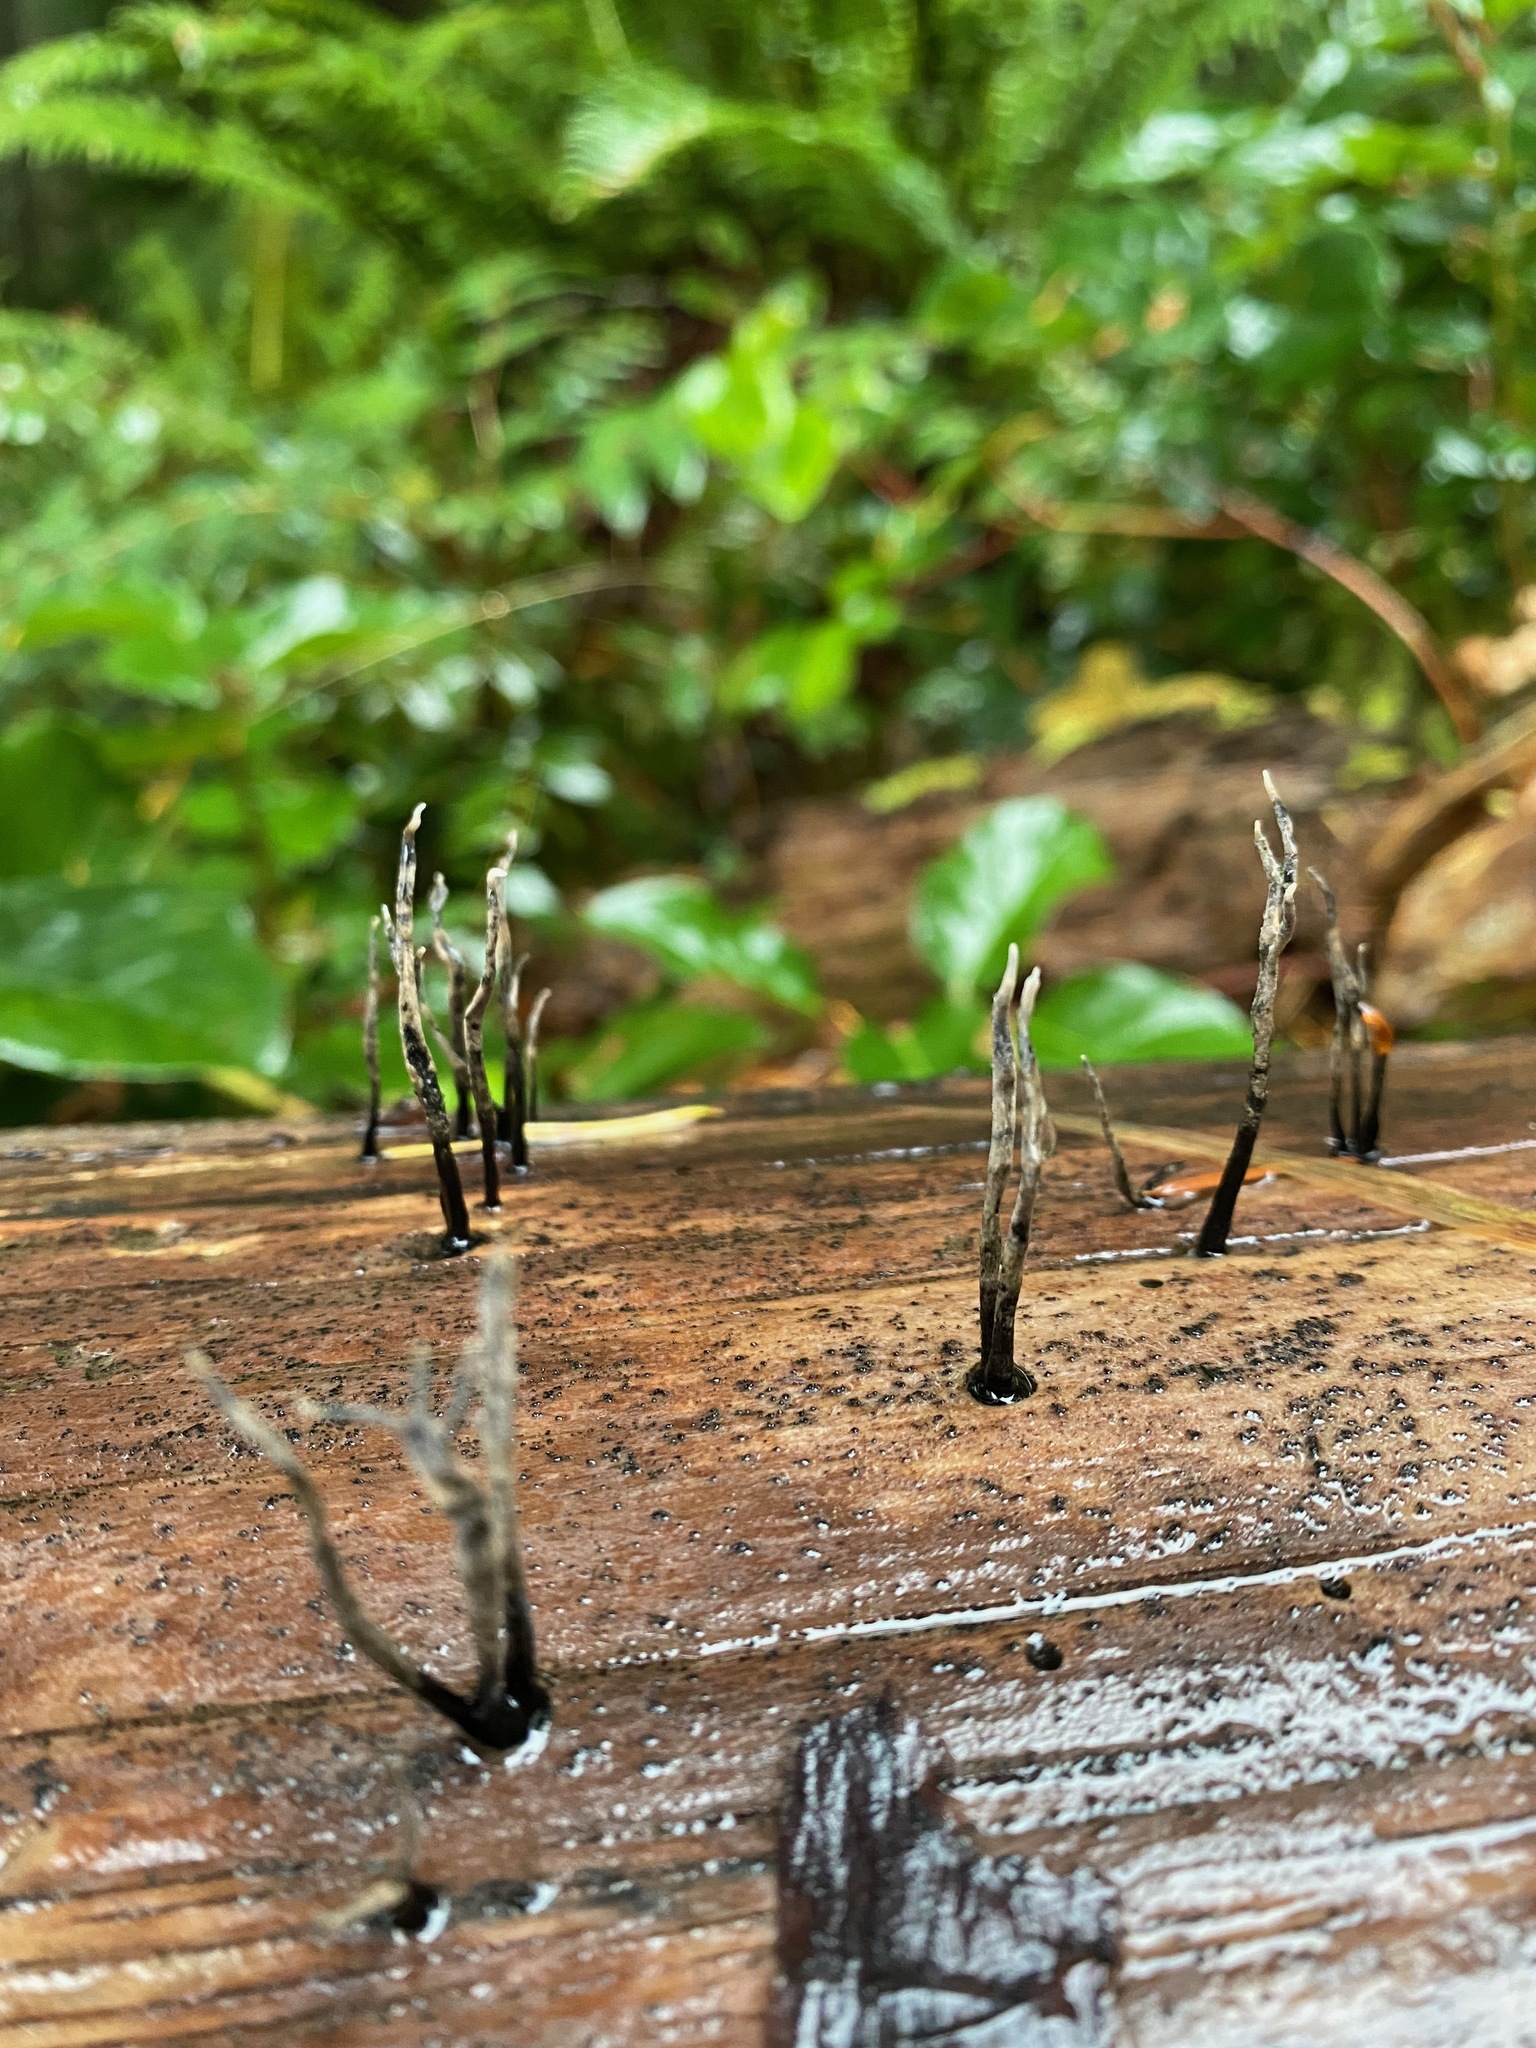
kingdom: Fungi
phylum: Ascomycota
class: Sordariomycetes
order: Xylariales
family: Xylariaceae
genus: Xylaria
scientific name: Xylaria hypoxylon
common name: Candle-snuff fungus
